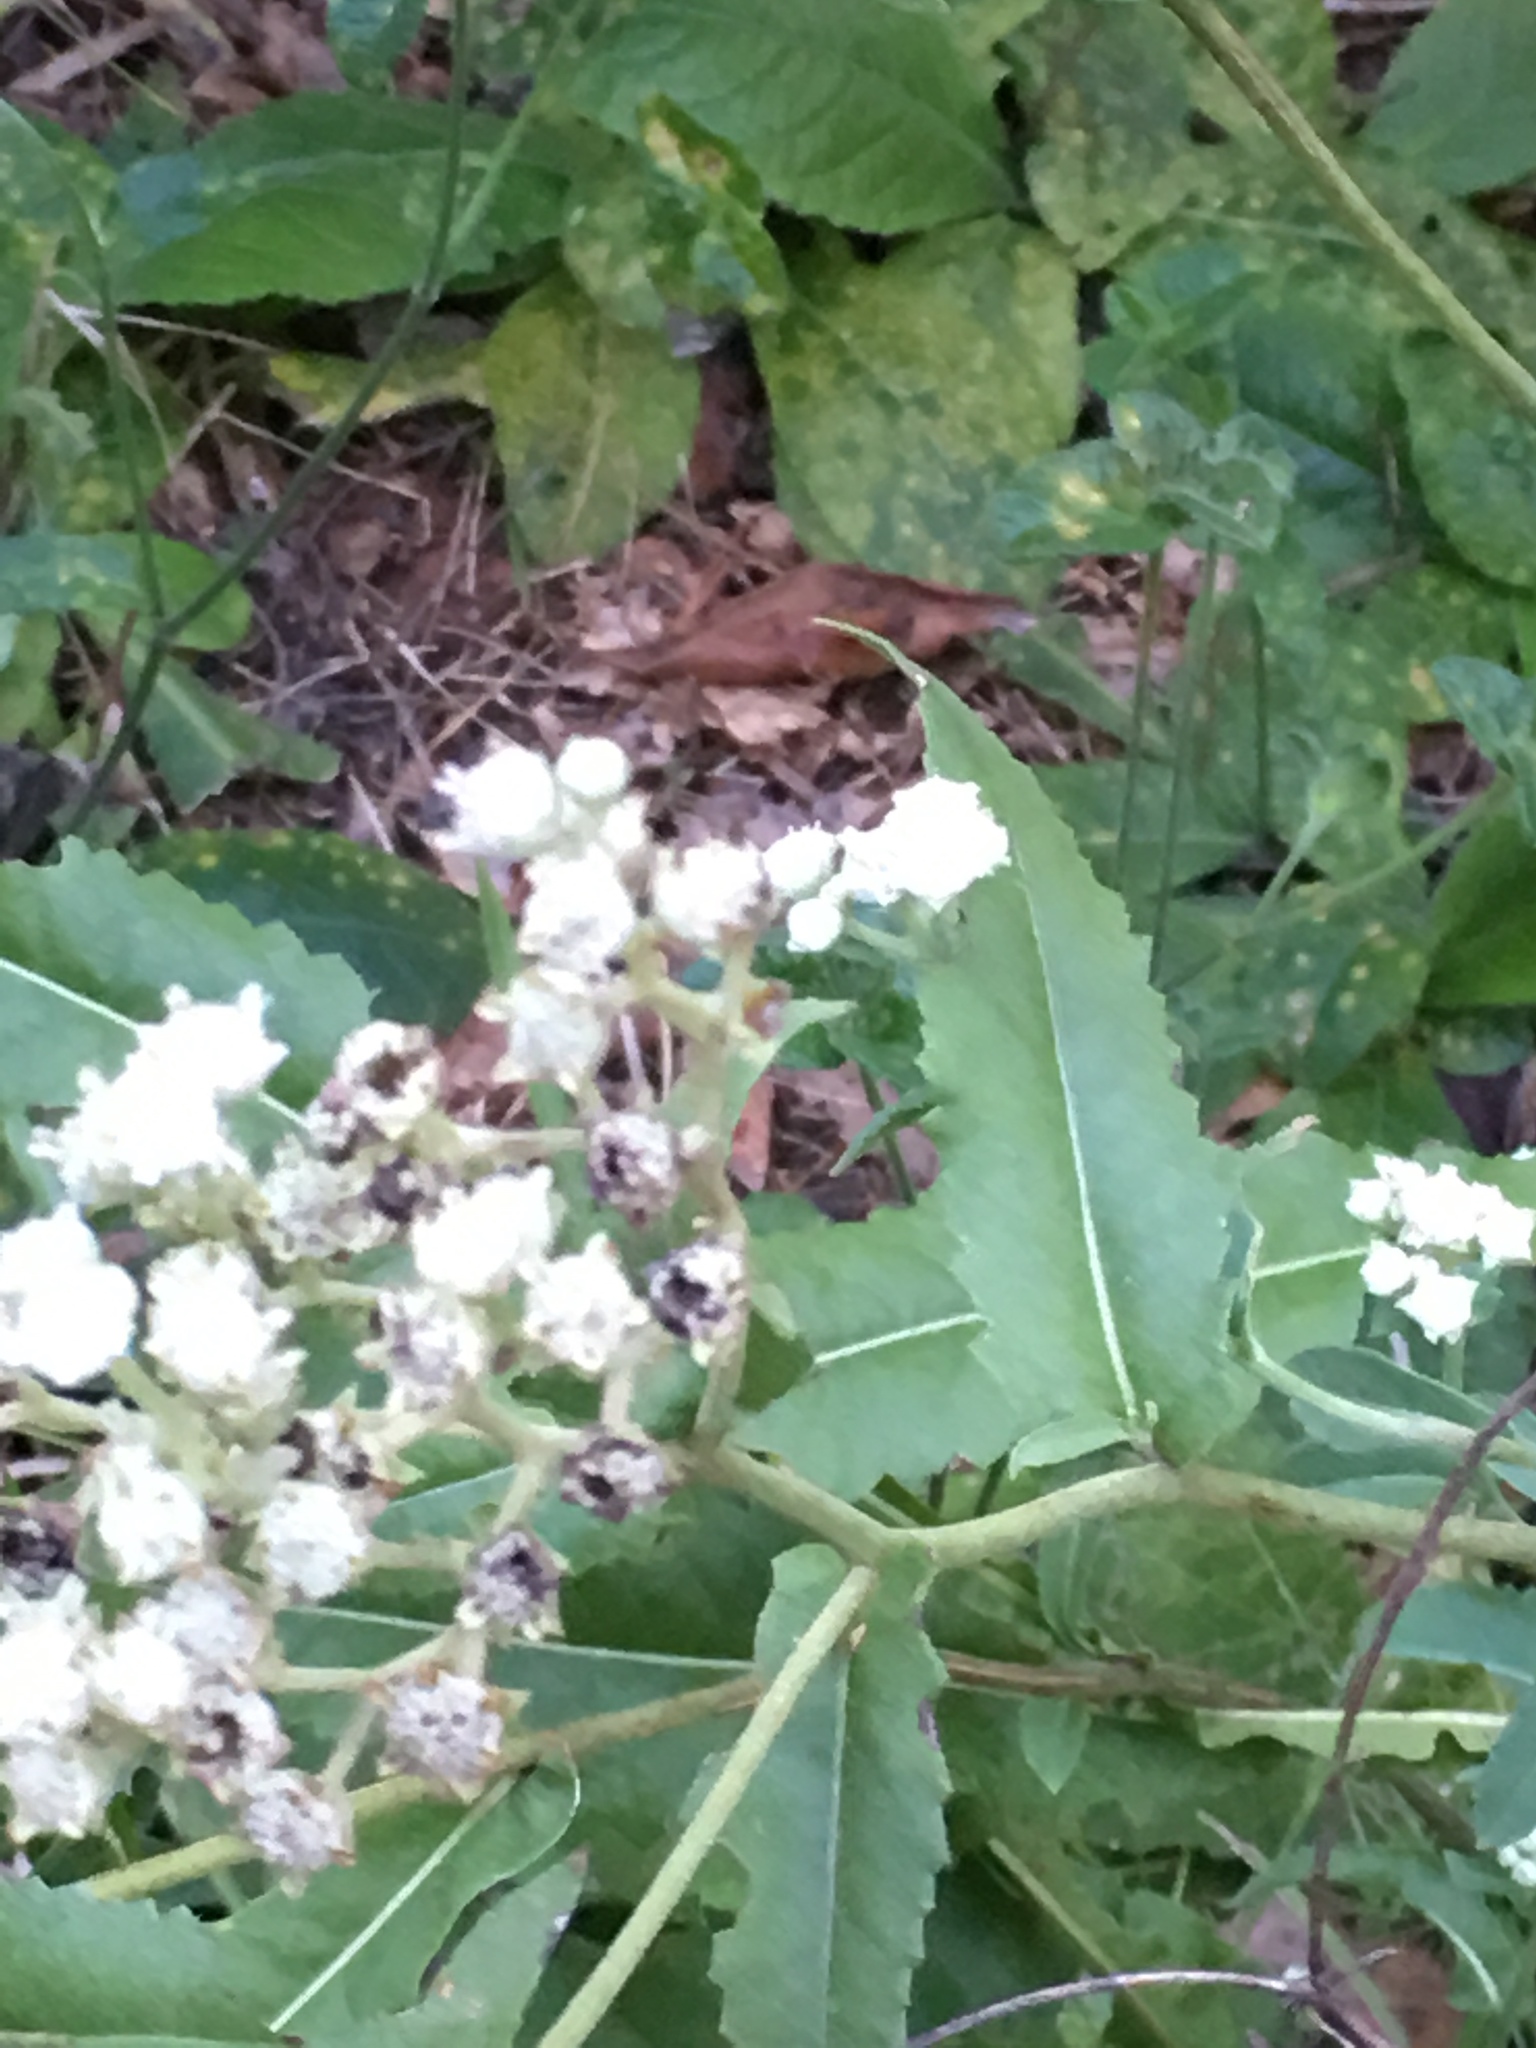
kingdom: Plantae
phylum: Tracheophyta
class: Magnoliopsida
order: Asterales
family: Asteraceae
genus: Parthenium
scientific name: Parthenium integrifolium
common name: American feverfew
